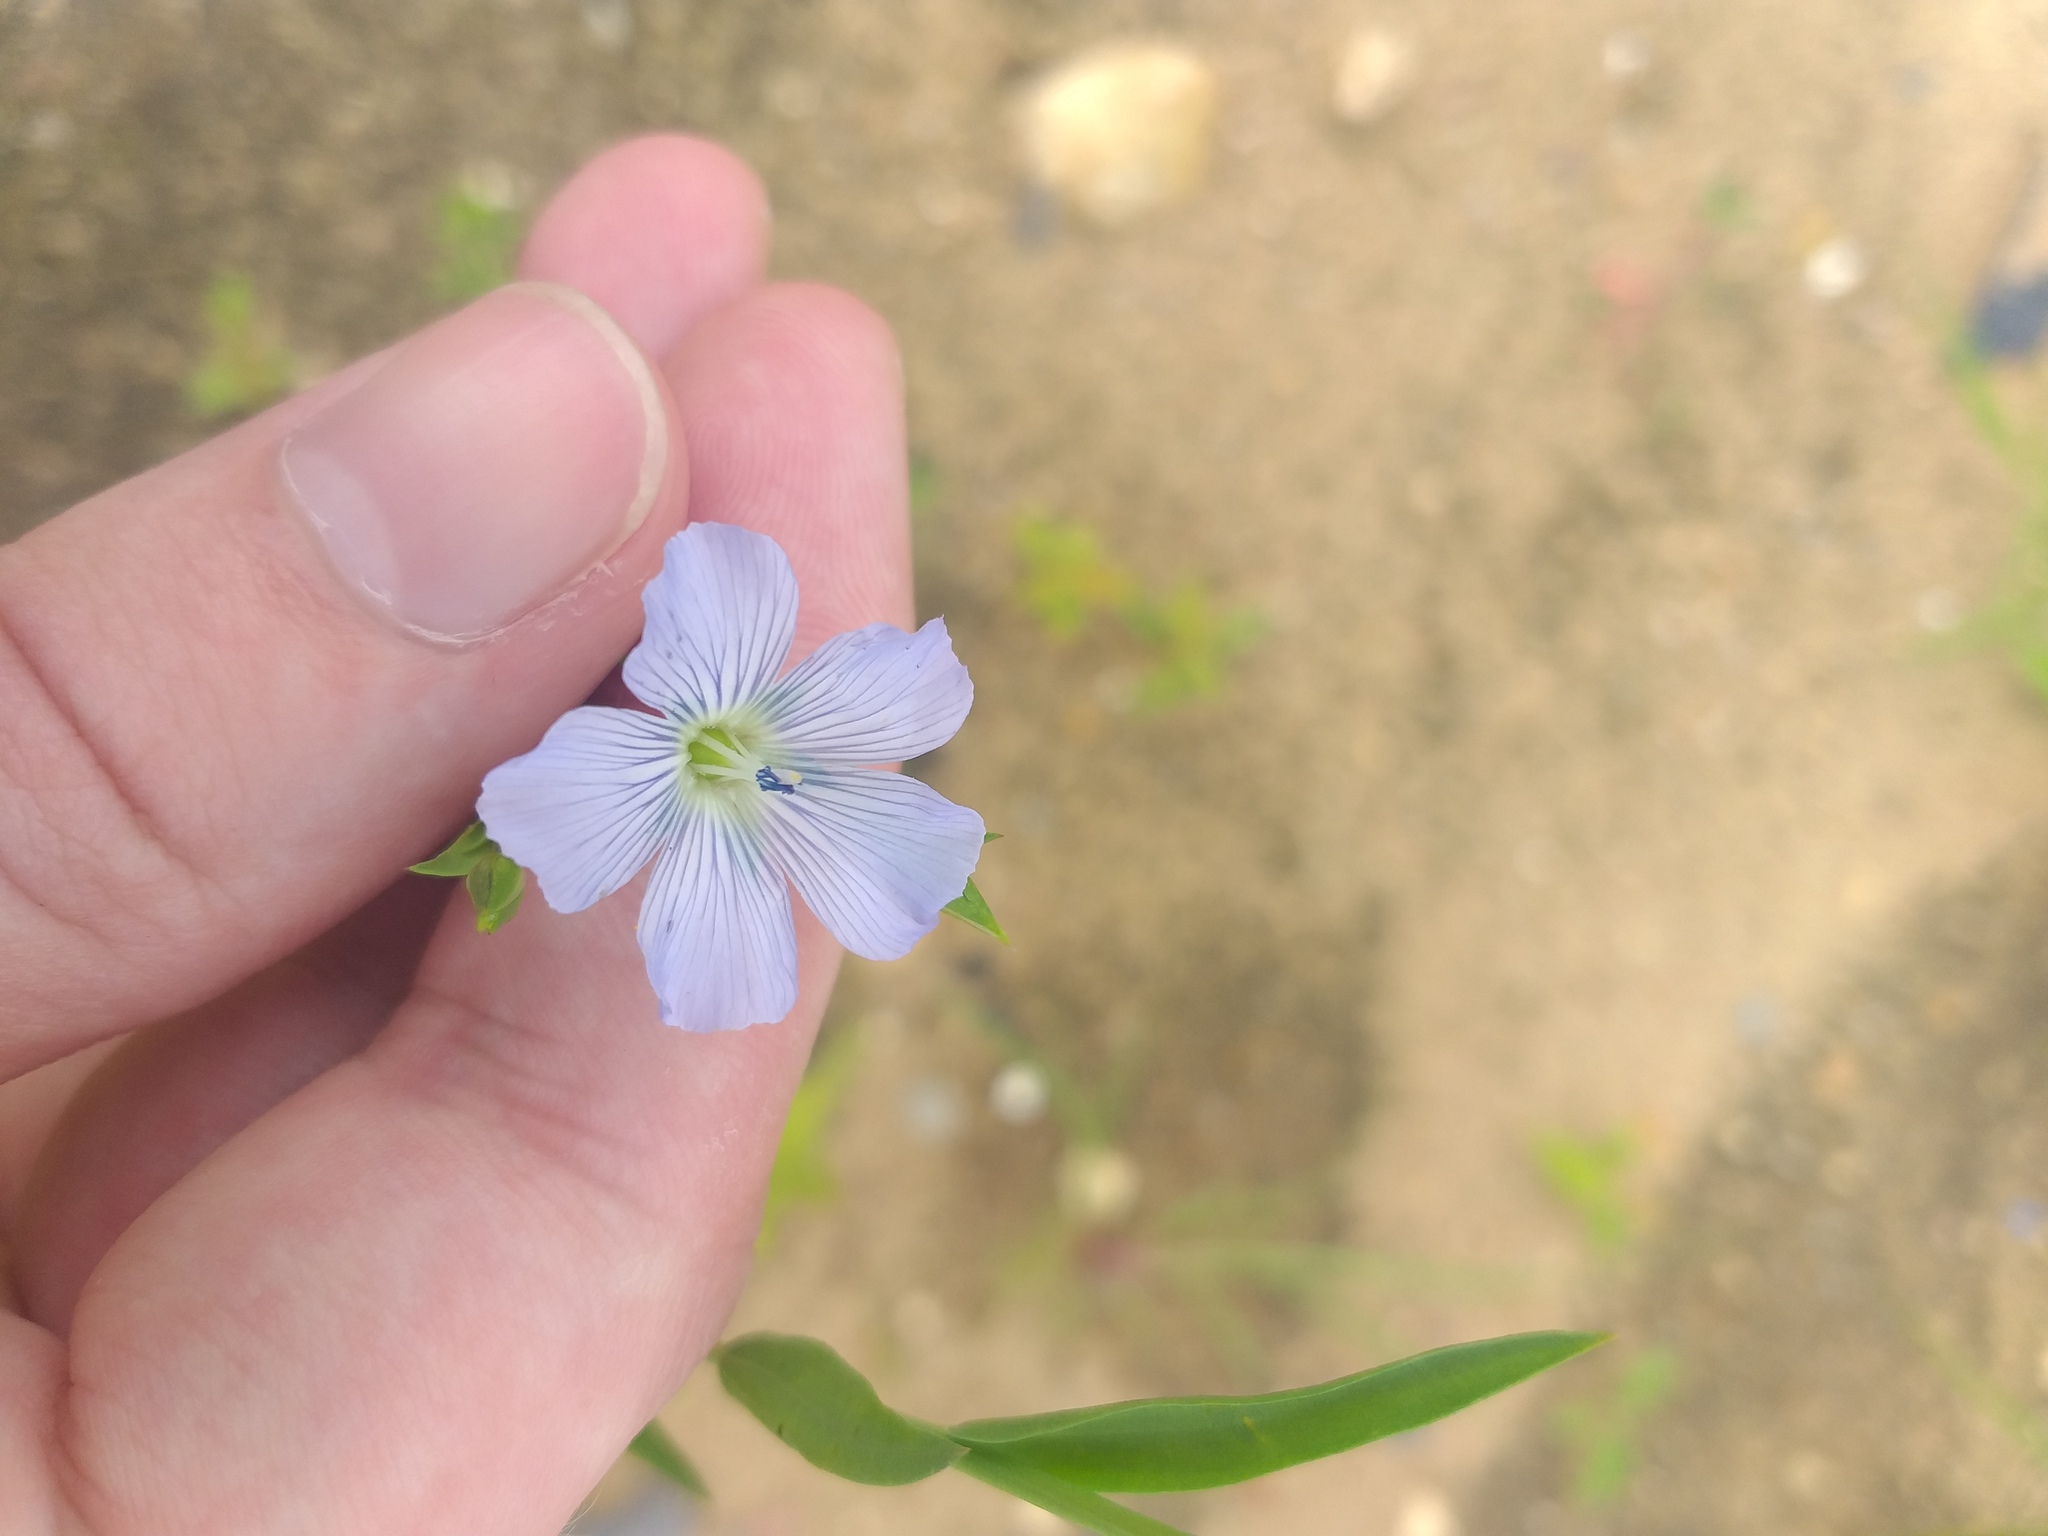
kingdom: Plantae
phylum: Tracheophyta
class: Magnoliopsida
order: Malpighiales
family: Linaceae
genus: Linum
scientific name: Linum usitatissimum
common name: Flax
